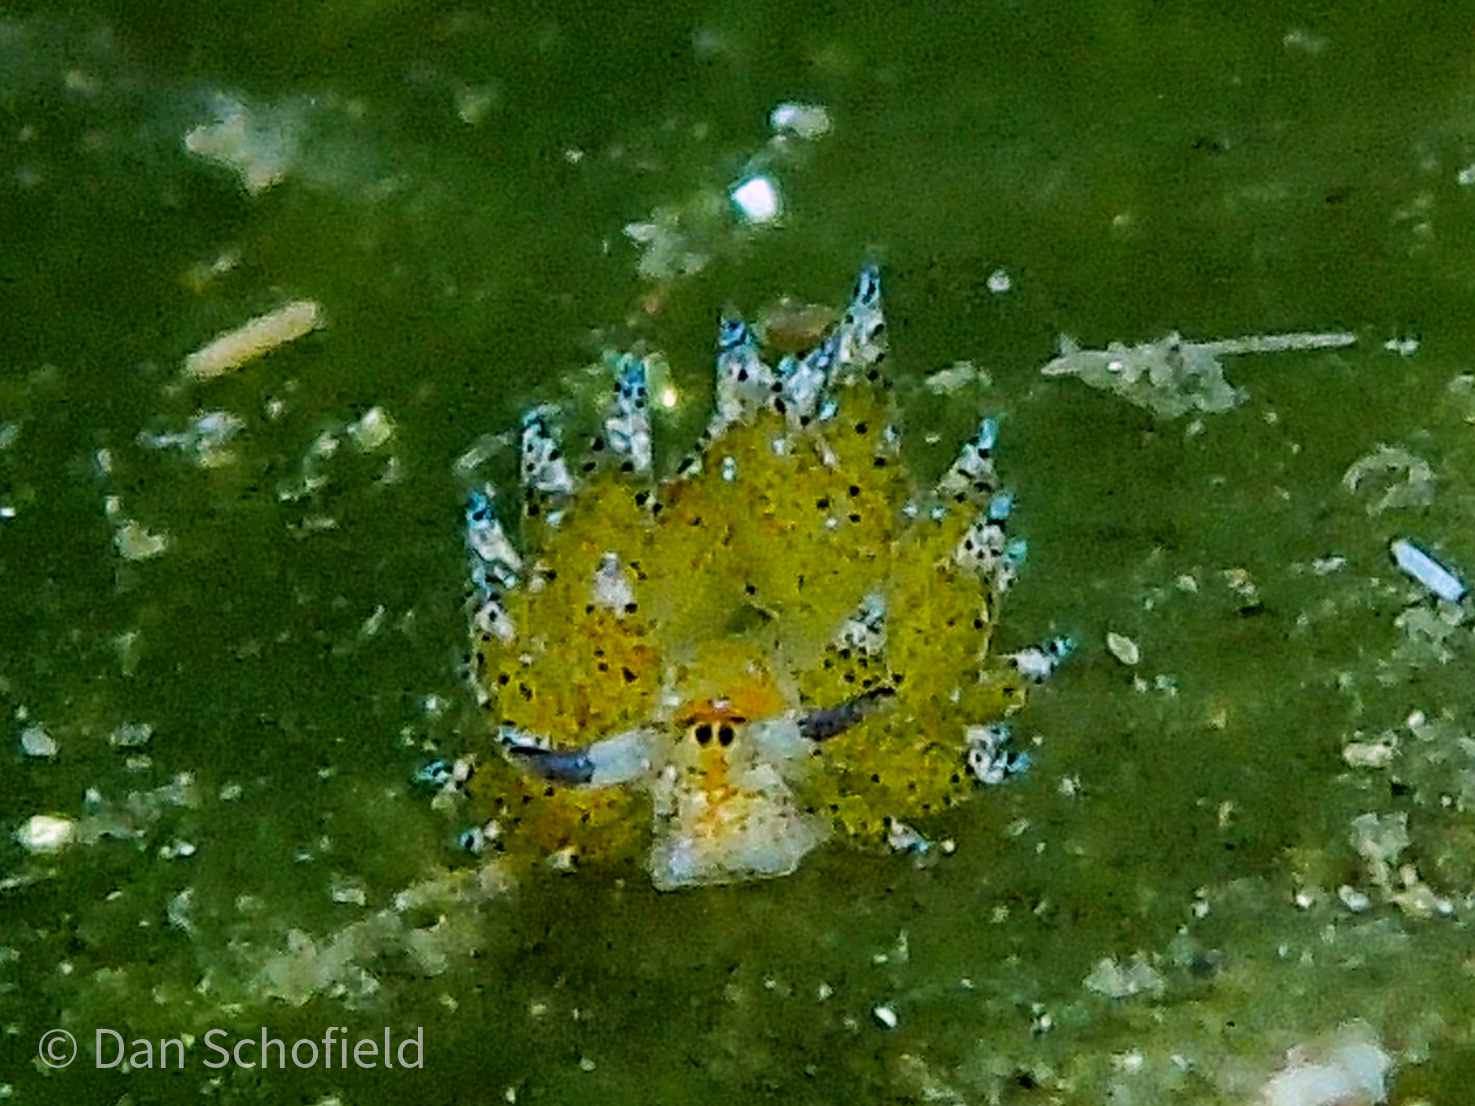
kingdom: Animalia
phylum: Mollusca
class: Gastropoda
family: Costasiellidae
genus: Costasiella
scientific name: Costasiella kuroshimae
